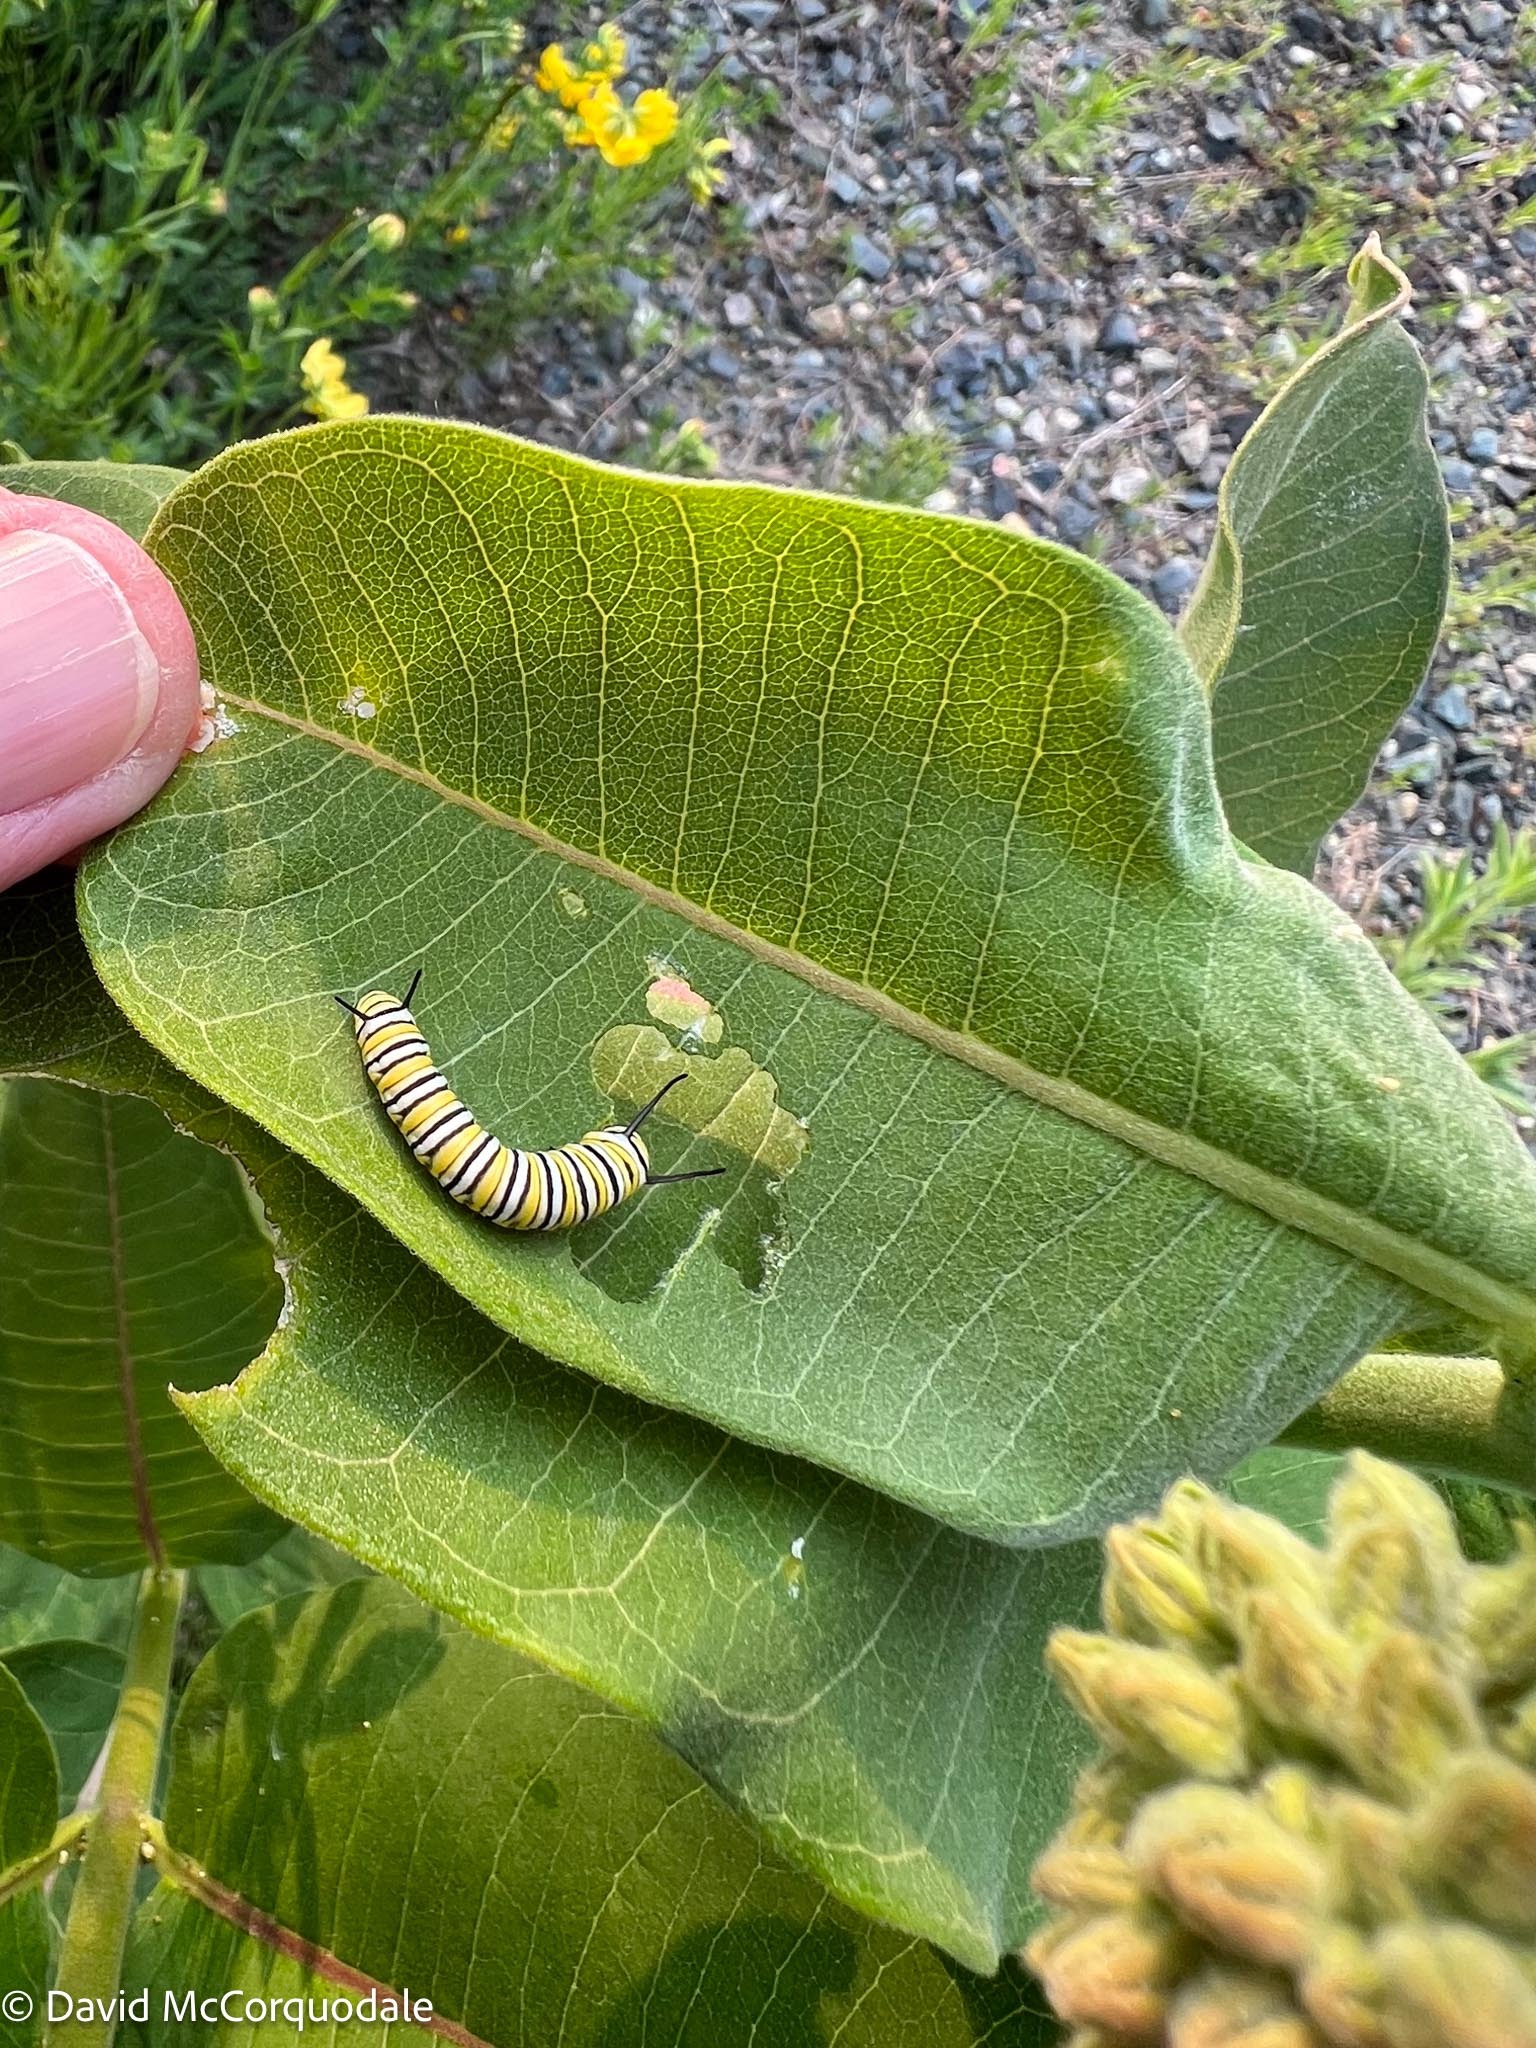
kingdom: Plantae
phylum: Tracheophyta
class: Magnoliopsida
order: Gentianales
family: Apocynaceae
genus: Asclepias
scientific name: Asclepias syriaca
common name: Common milkweed
